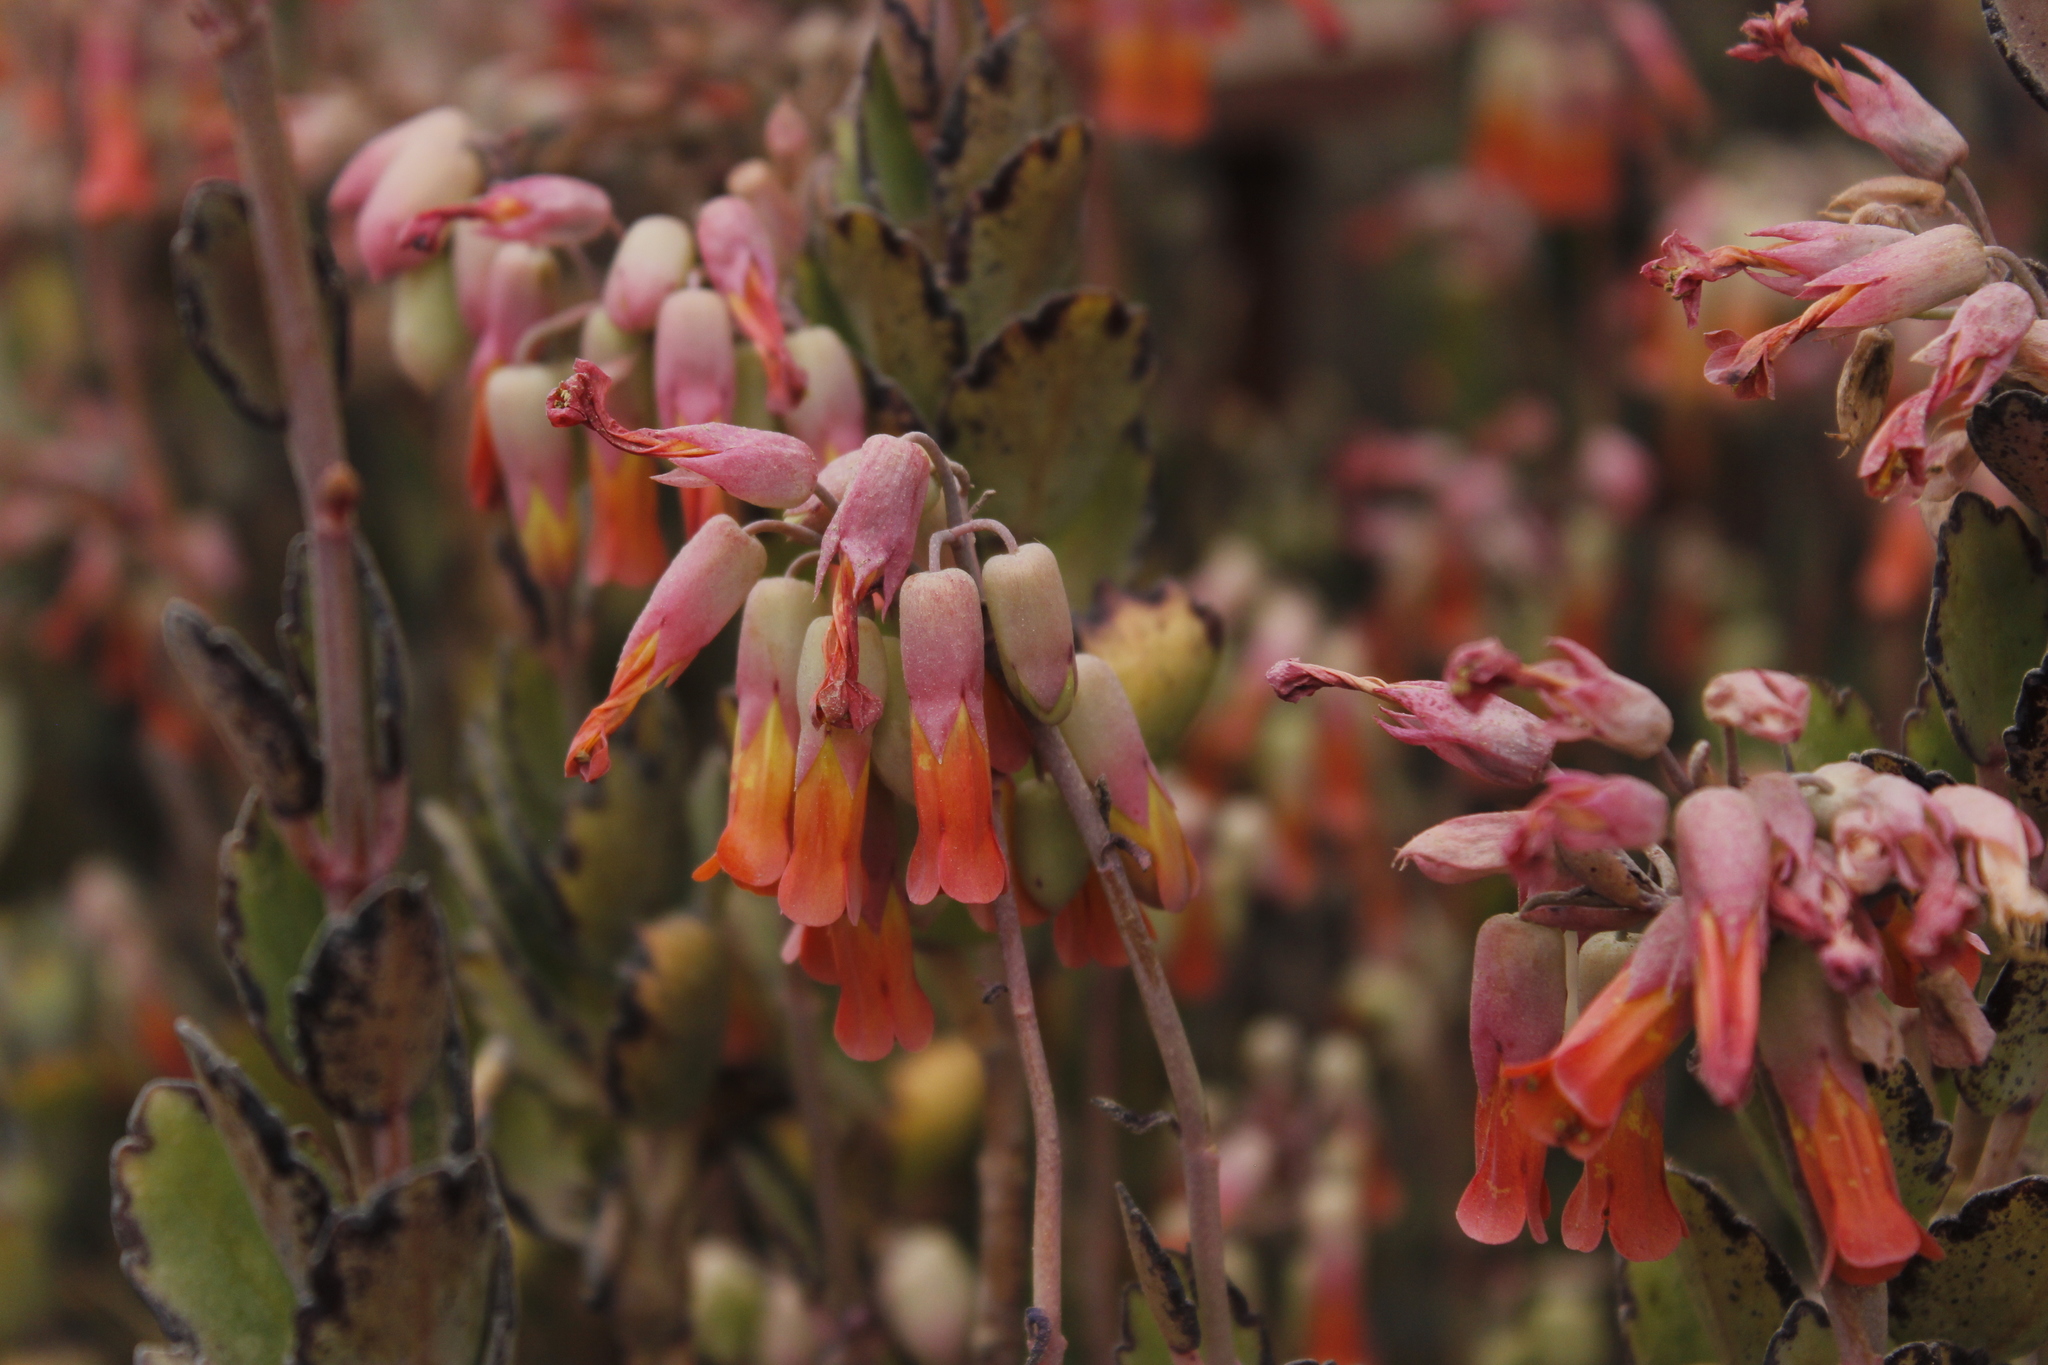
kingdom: Plantae
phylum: Tracheophyta
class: Magnoliopsida
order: Saxifragales
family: Crassulaceae
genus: Kalanchoe
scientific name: Kalanchoe laxiflora
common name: Milky widow's thrill
